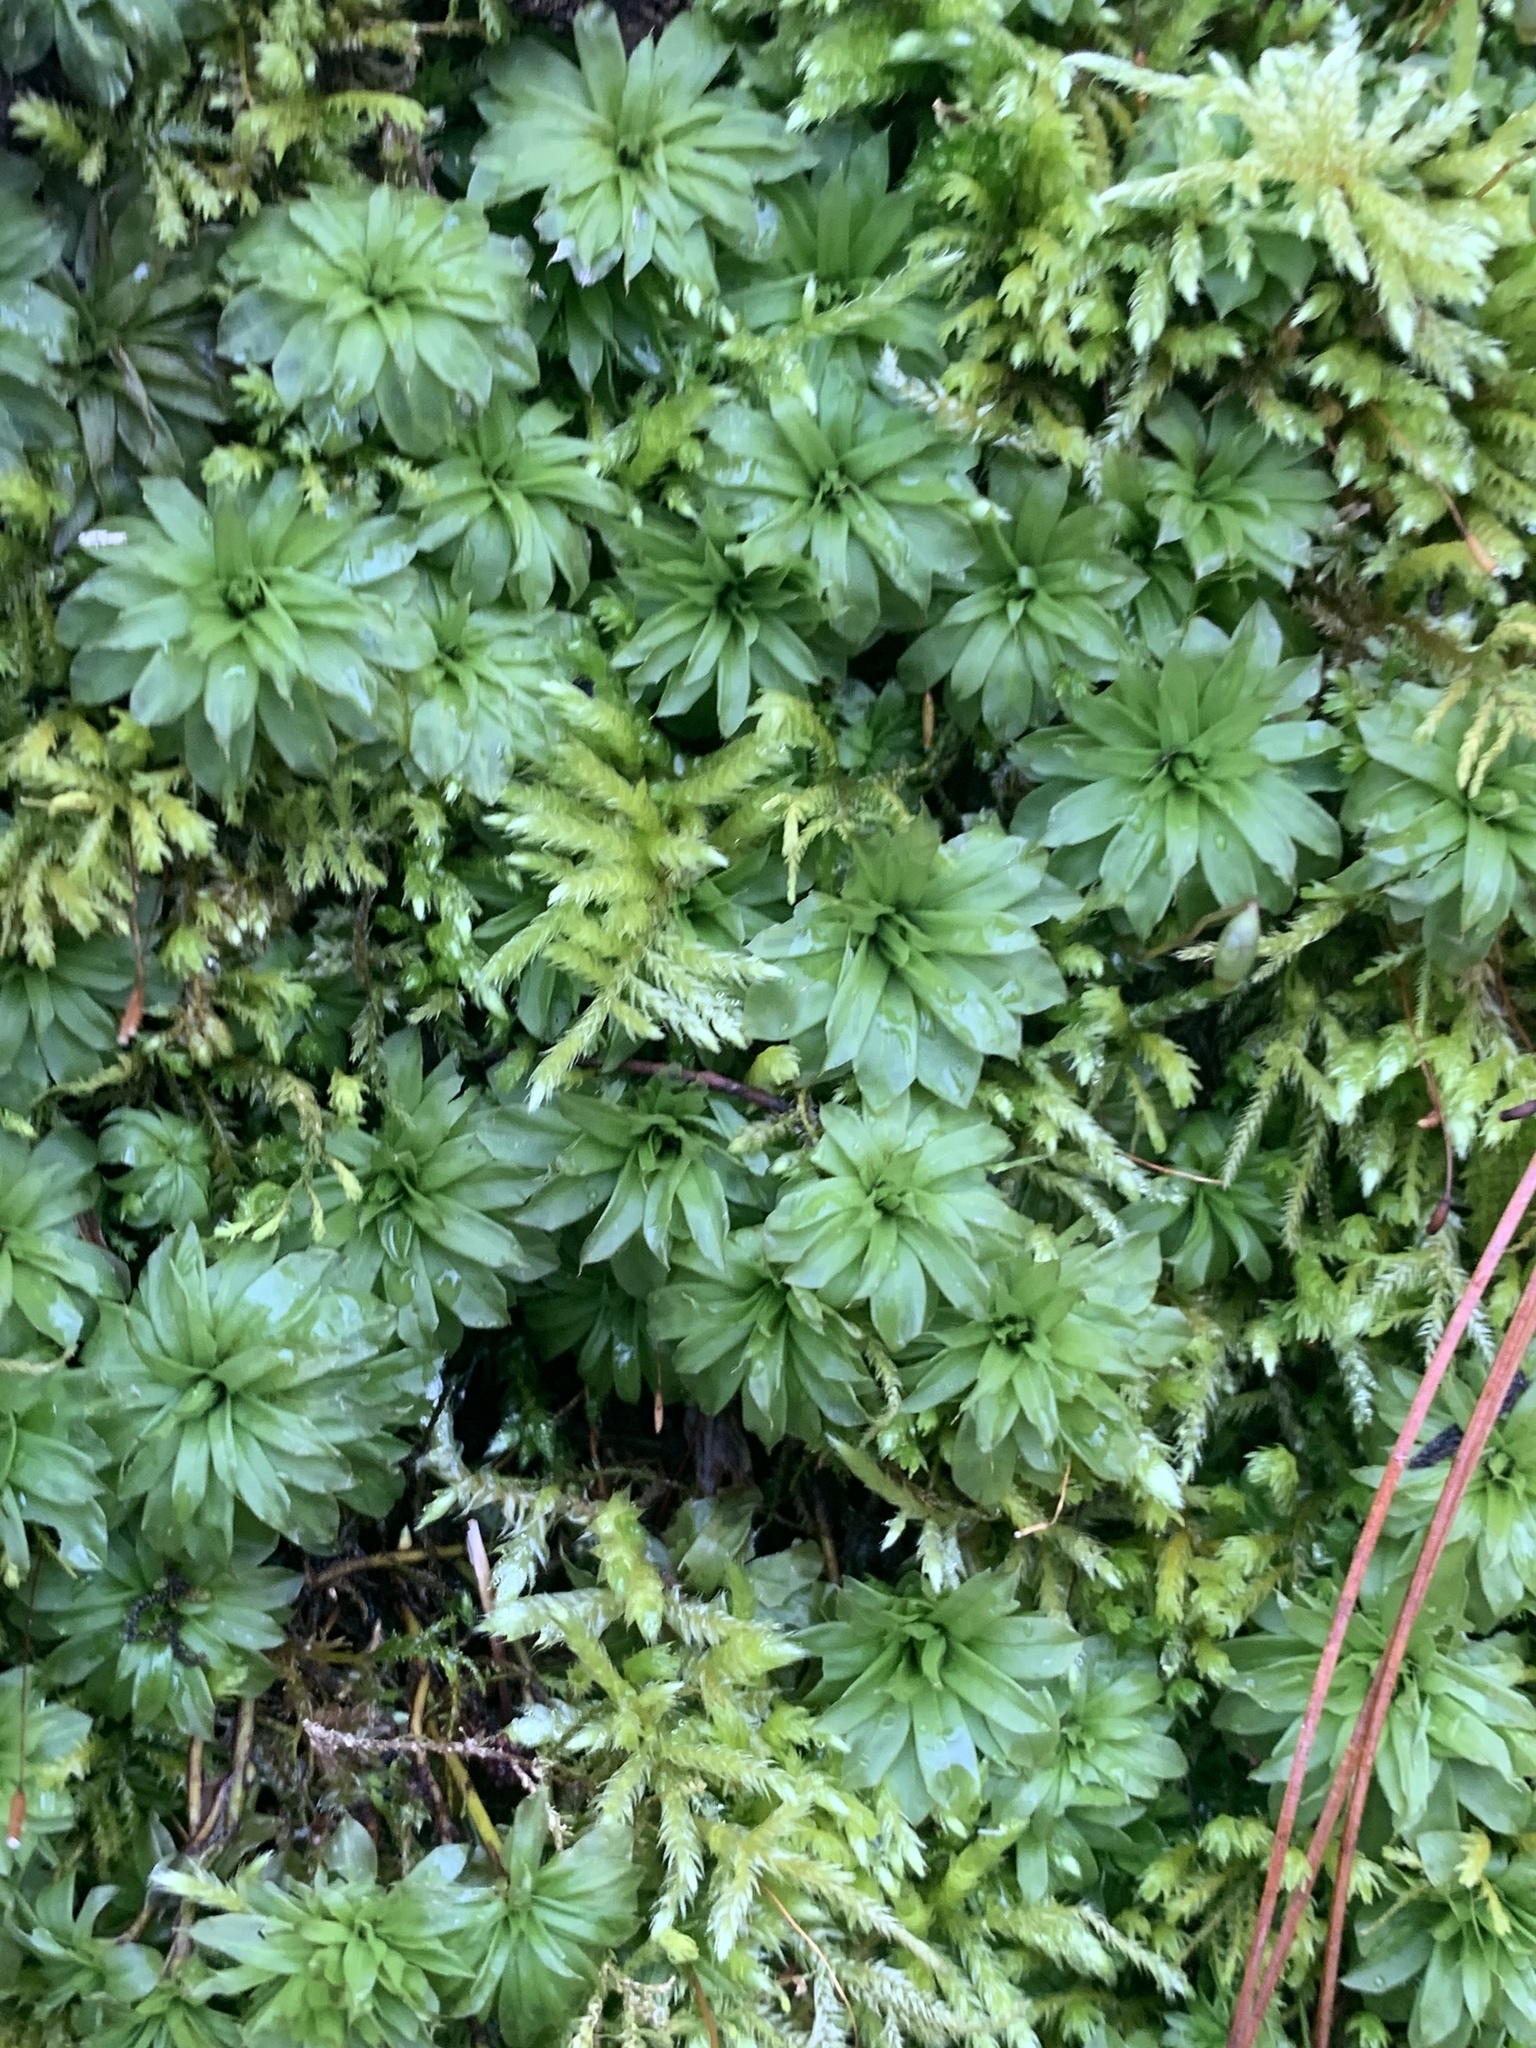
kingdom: Plantae
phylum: Bryophyta
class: Bryopsida
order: Bryales
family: Bryaceae
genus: Rhodobryum
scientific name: Rhodobryum ontariense
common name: Ontario rhodobryum moss
